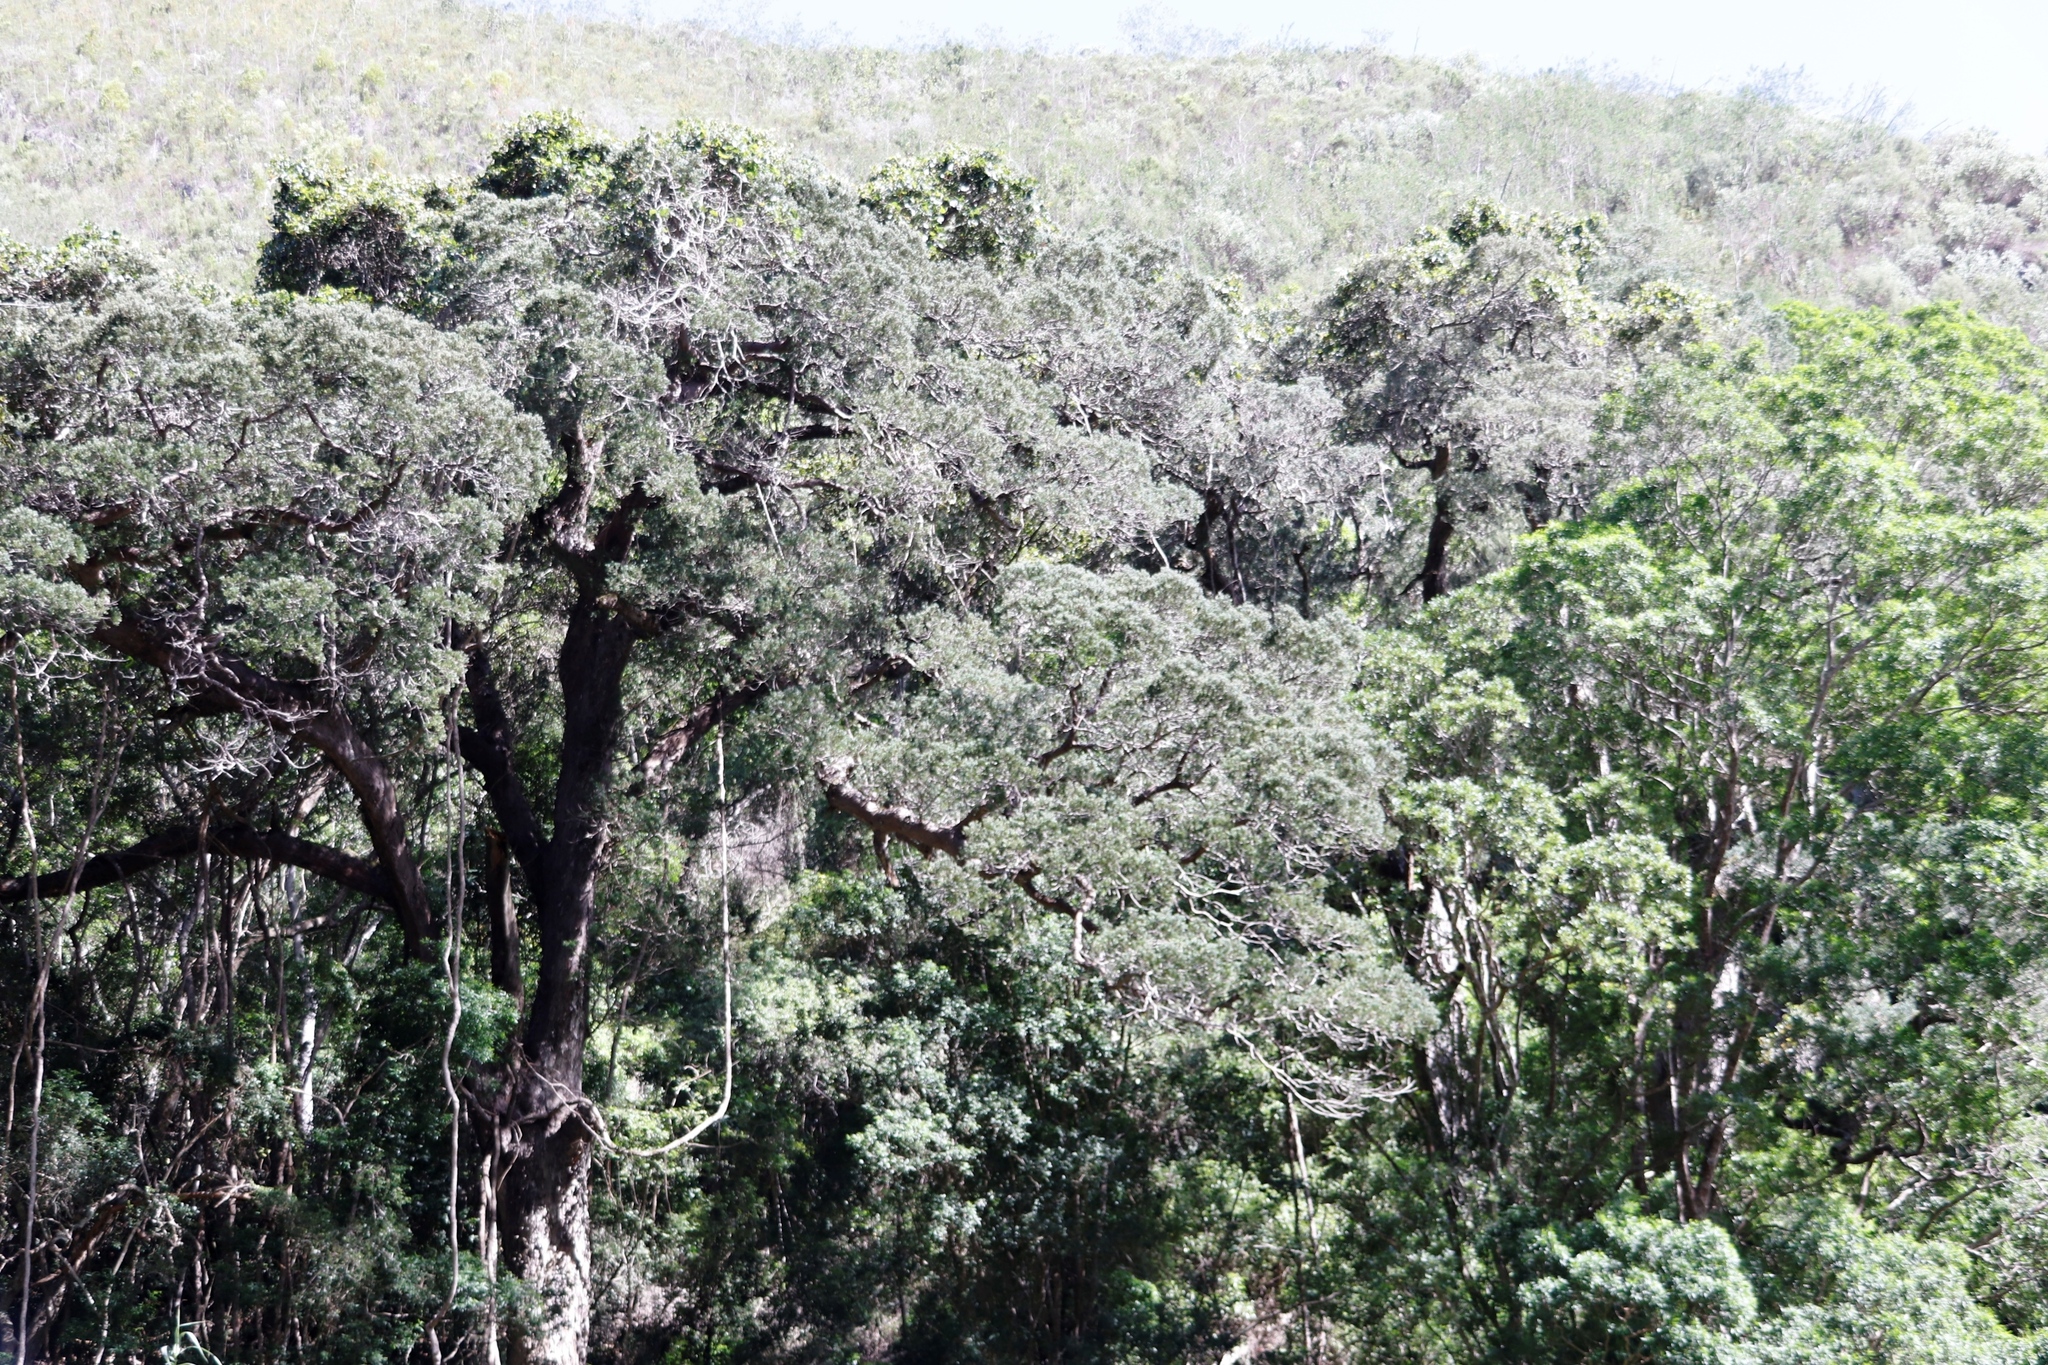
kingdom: Plantae
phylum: Tracheophyta
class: Pinopsida
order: Pinales
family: Podocarpaceae
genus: Afrocarpus
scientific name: Afrocarpus falcatus
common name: Bastard yellowwood
